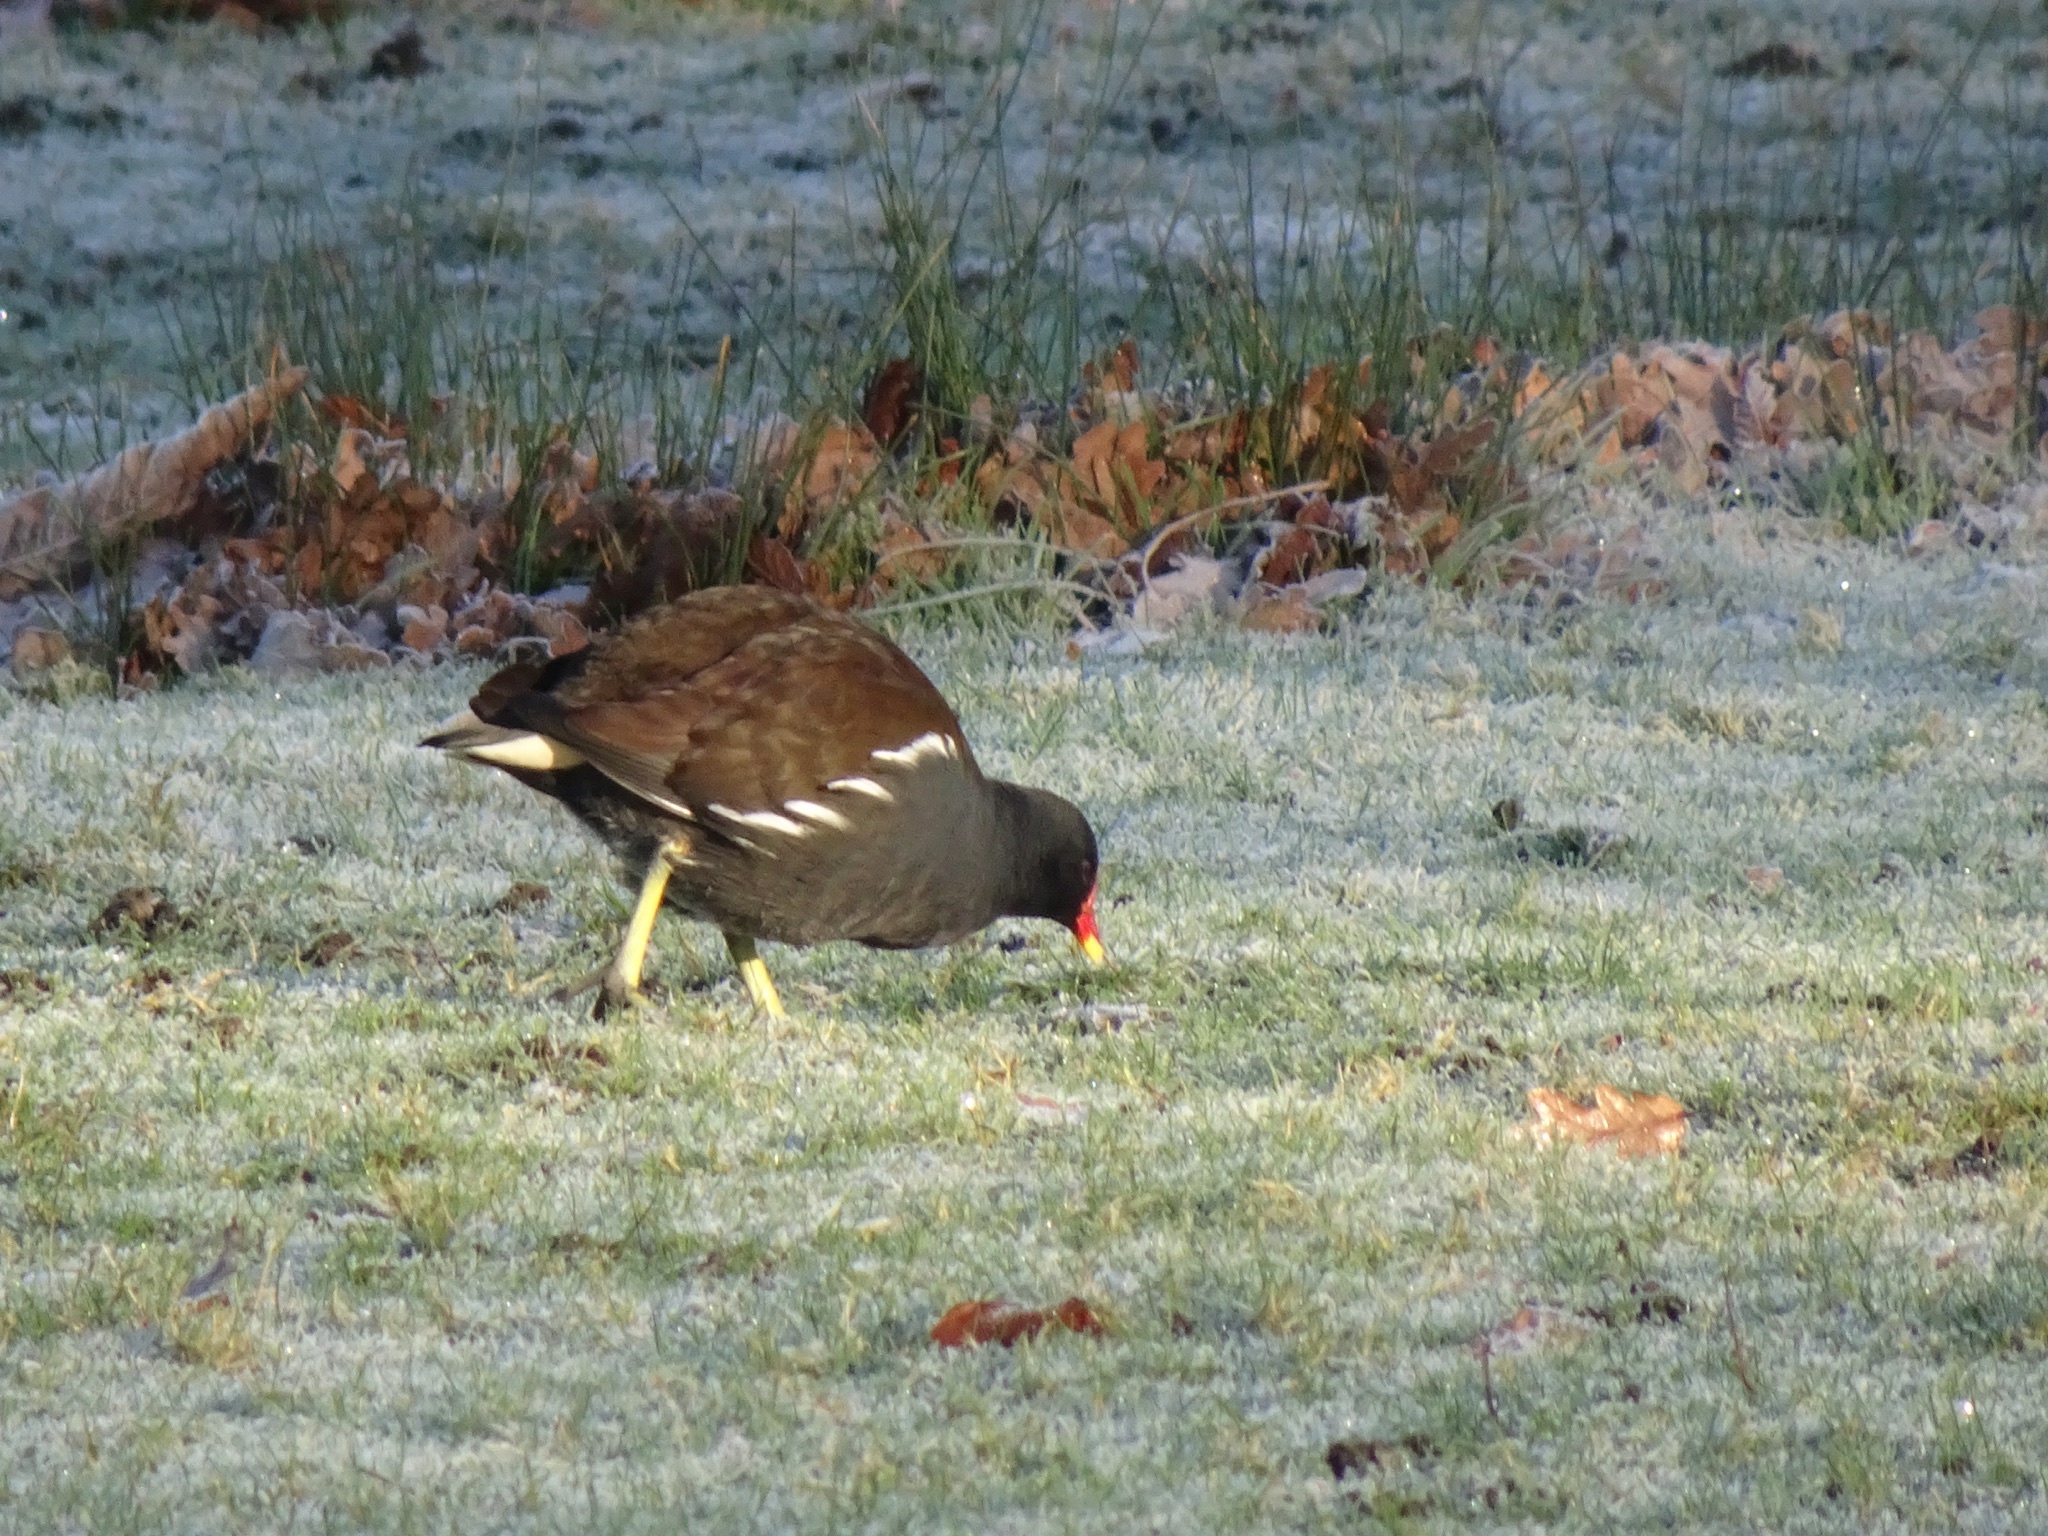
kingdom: Animalia
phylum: Chordata
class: Aves
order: Gruiformes
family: Rallidae
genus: Gallinula
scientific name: Gallinula chloropus
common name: Common moorhen
